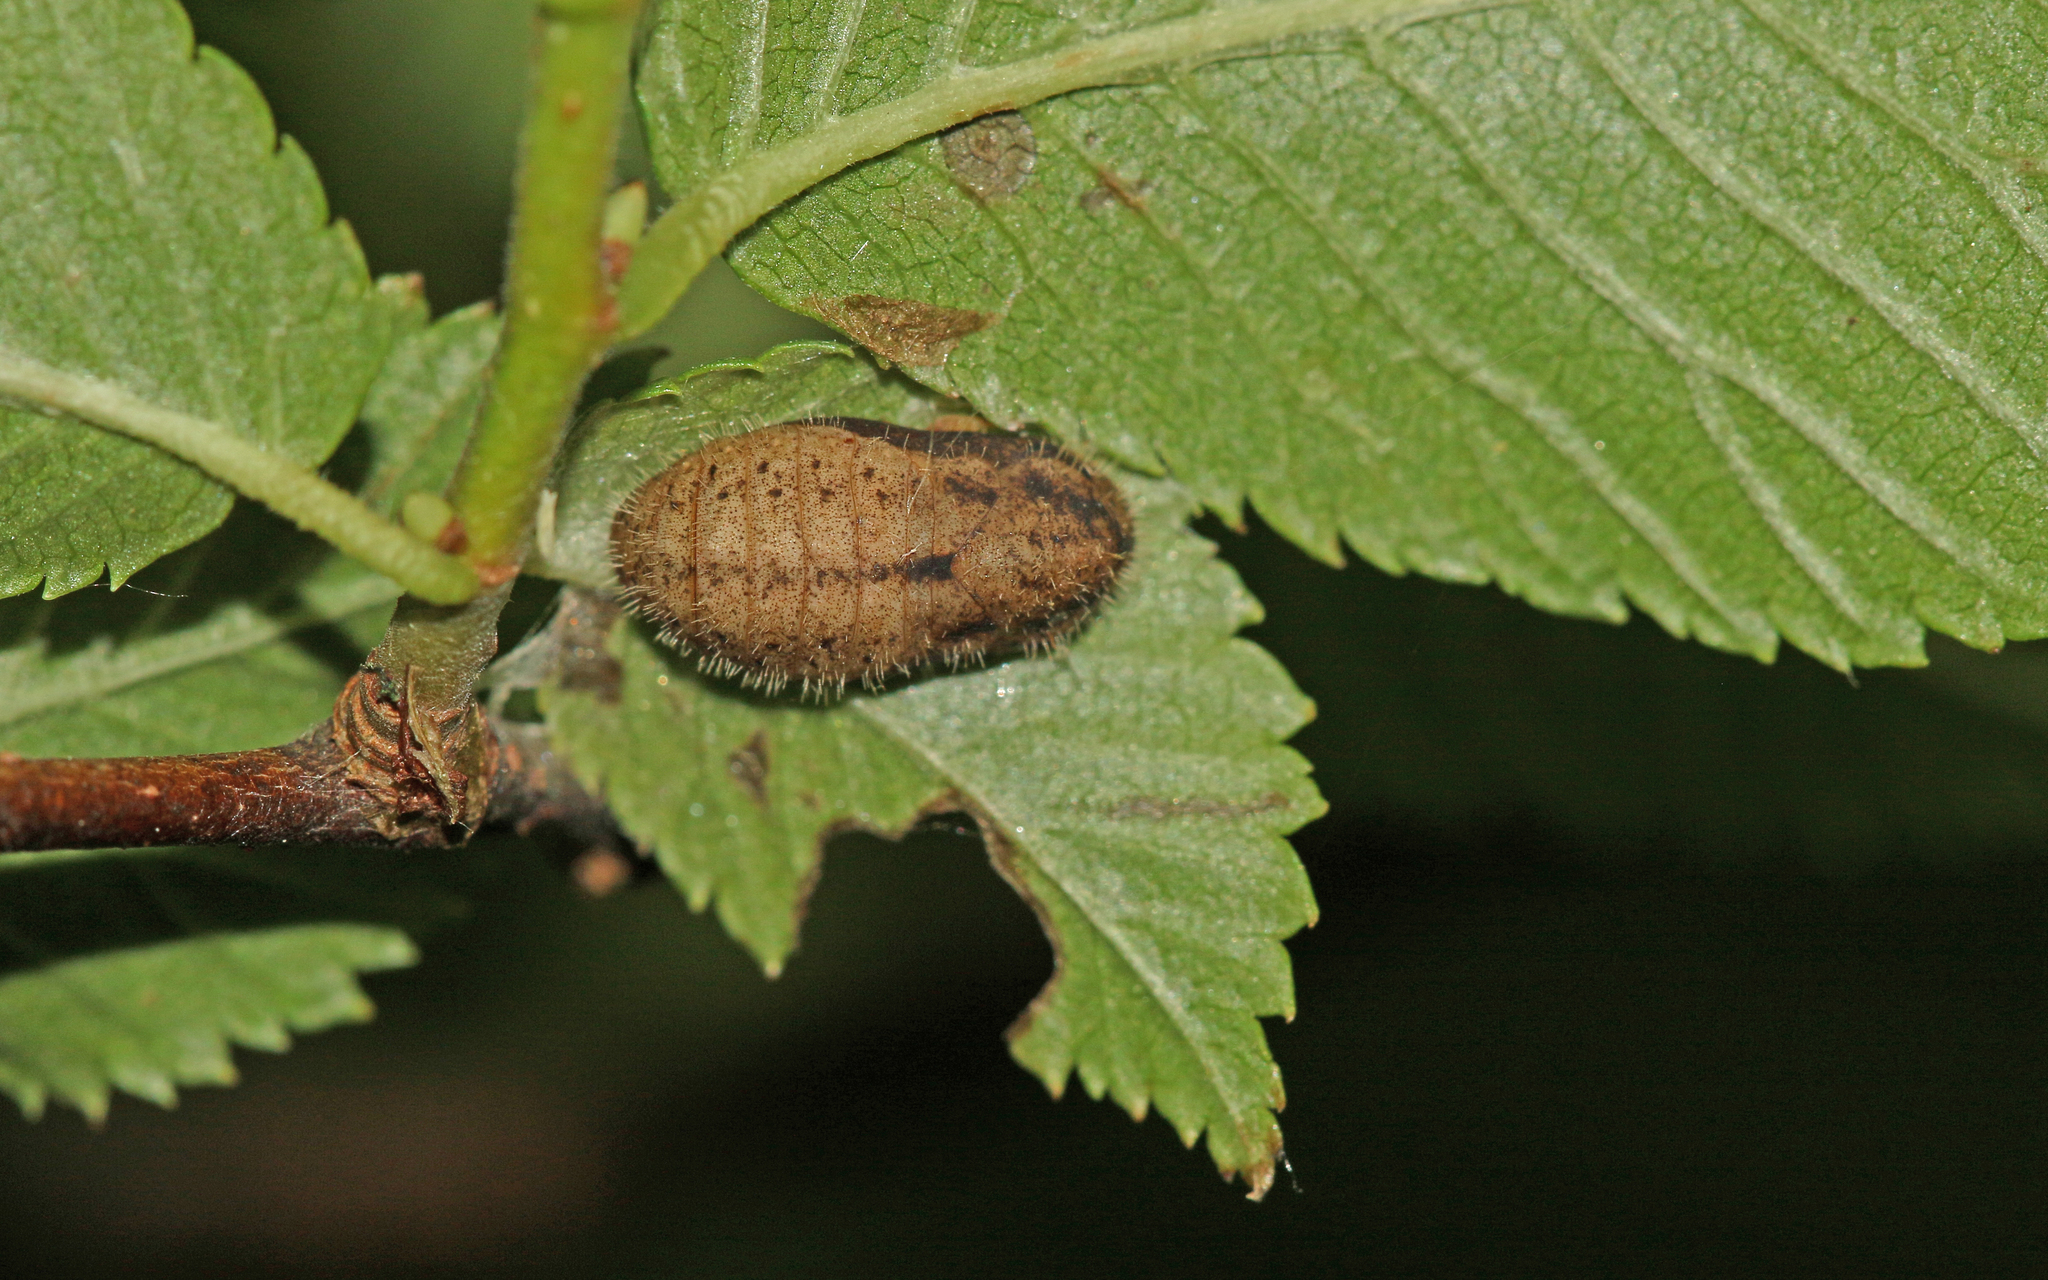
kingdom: Animalia
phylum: Arthropoda
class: Insecta
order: Lepidoptera
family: Lycaenidae
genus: Satyrium
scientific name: Satyrium w-album
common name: White-letter hairstreak
